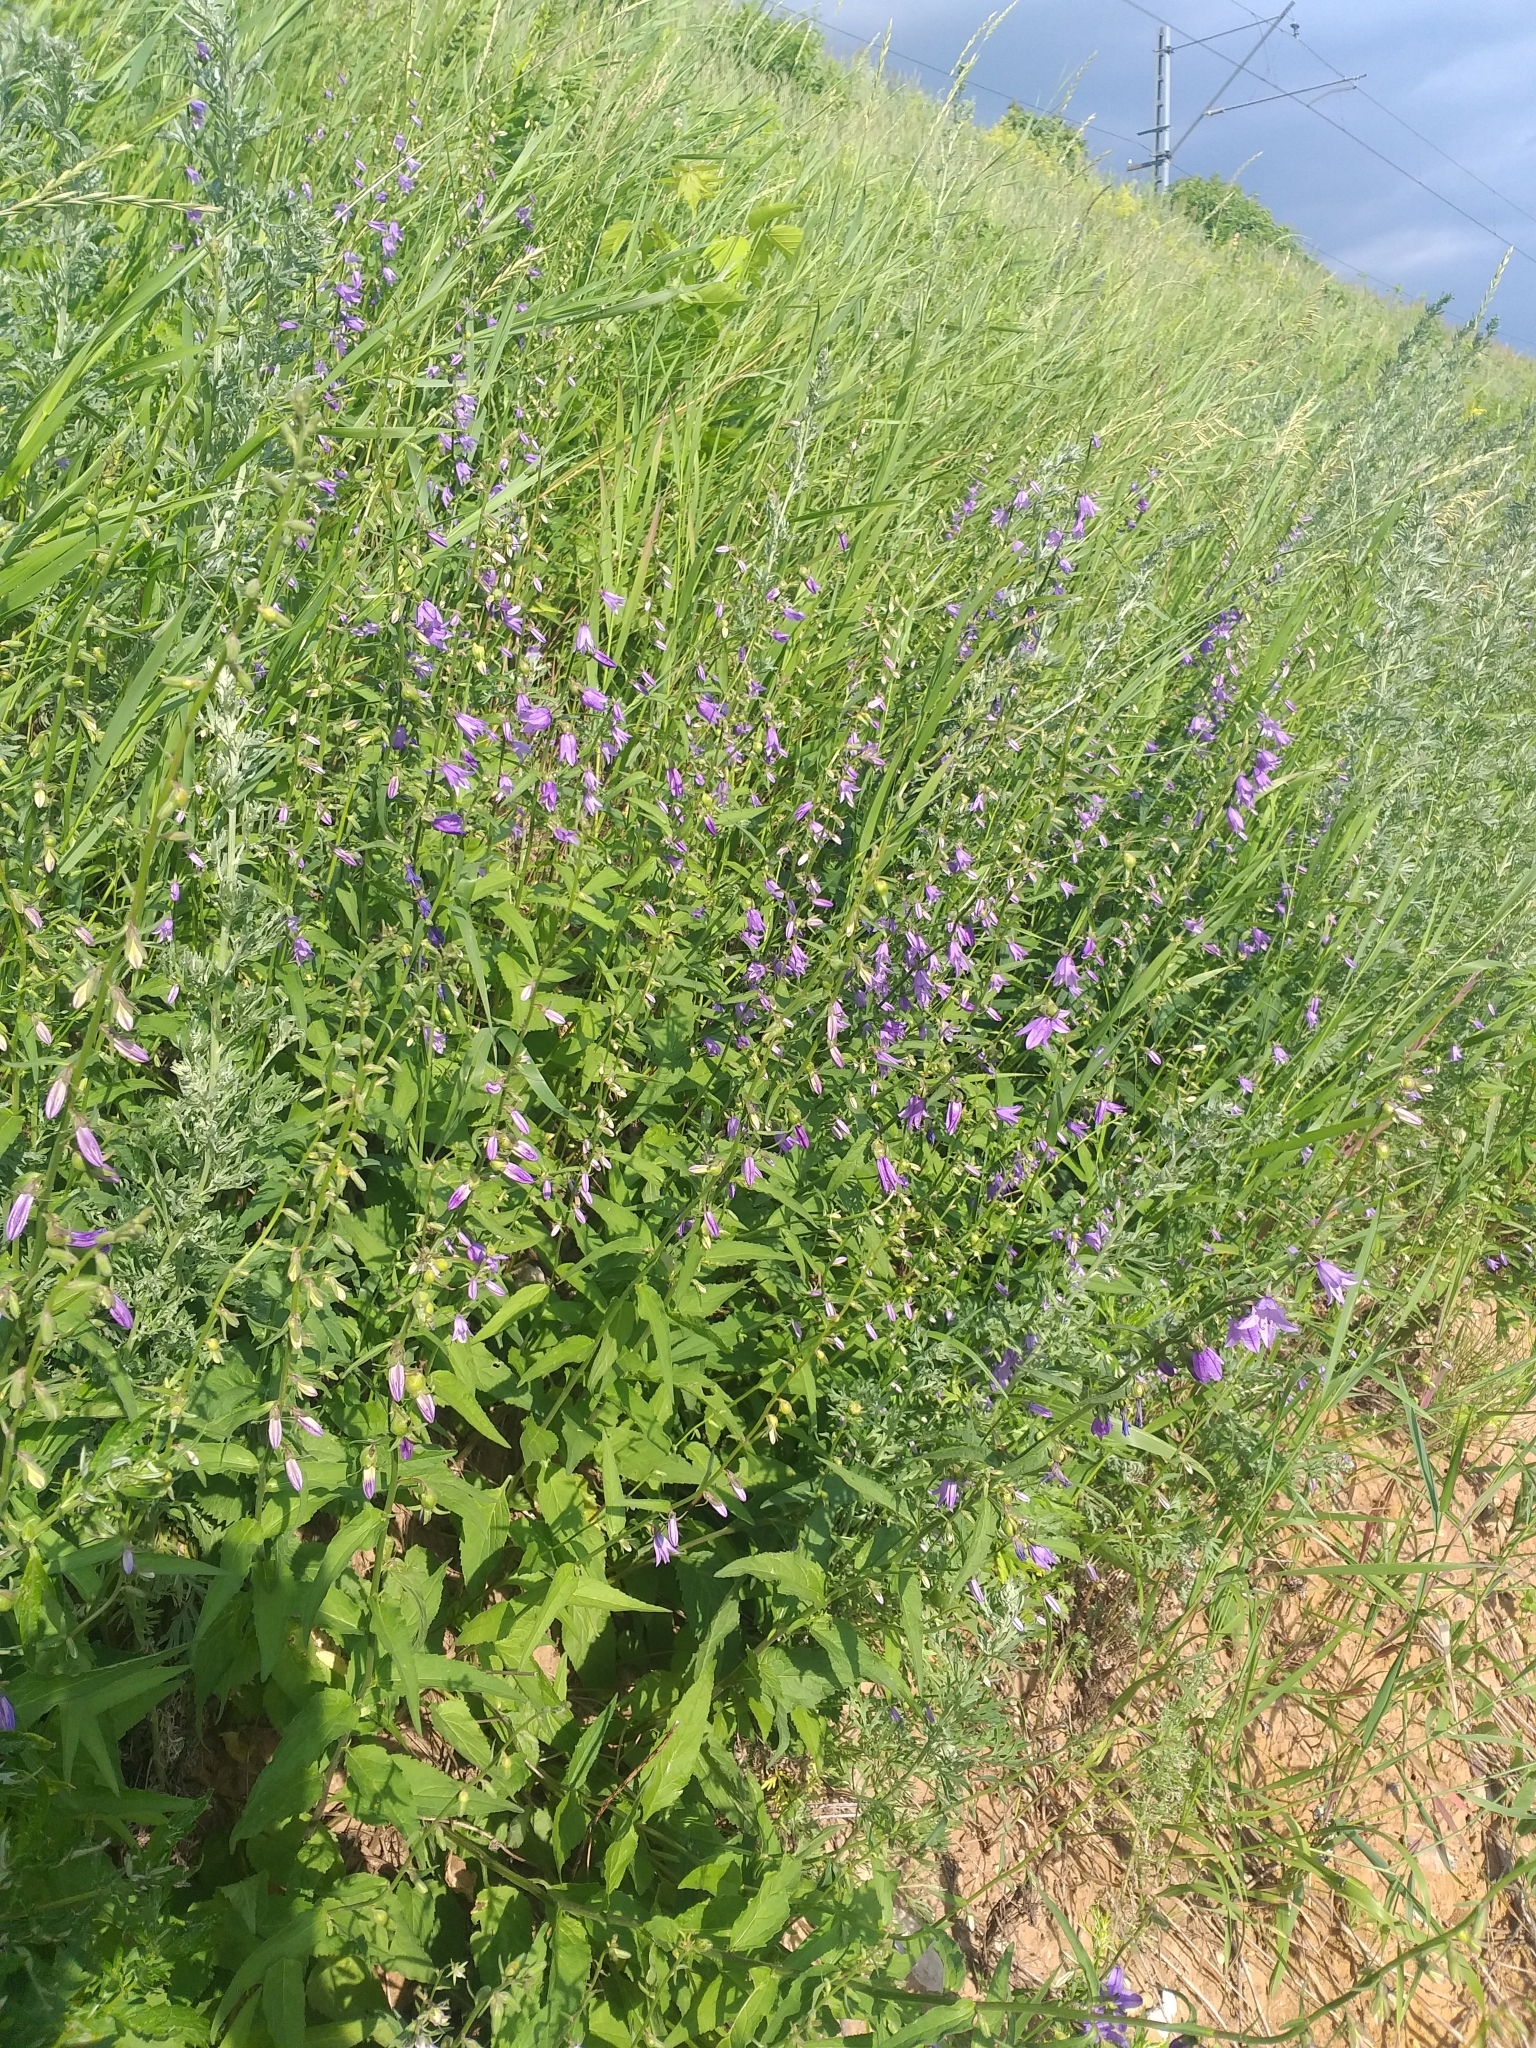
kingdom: Plantae
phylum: Tracheophyta
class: Magnoliopsida
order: Asterales
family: Campanulaceae
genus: Campanula
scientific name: Campanula rapunculoides
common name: Creeping bellflower
